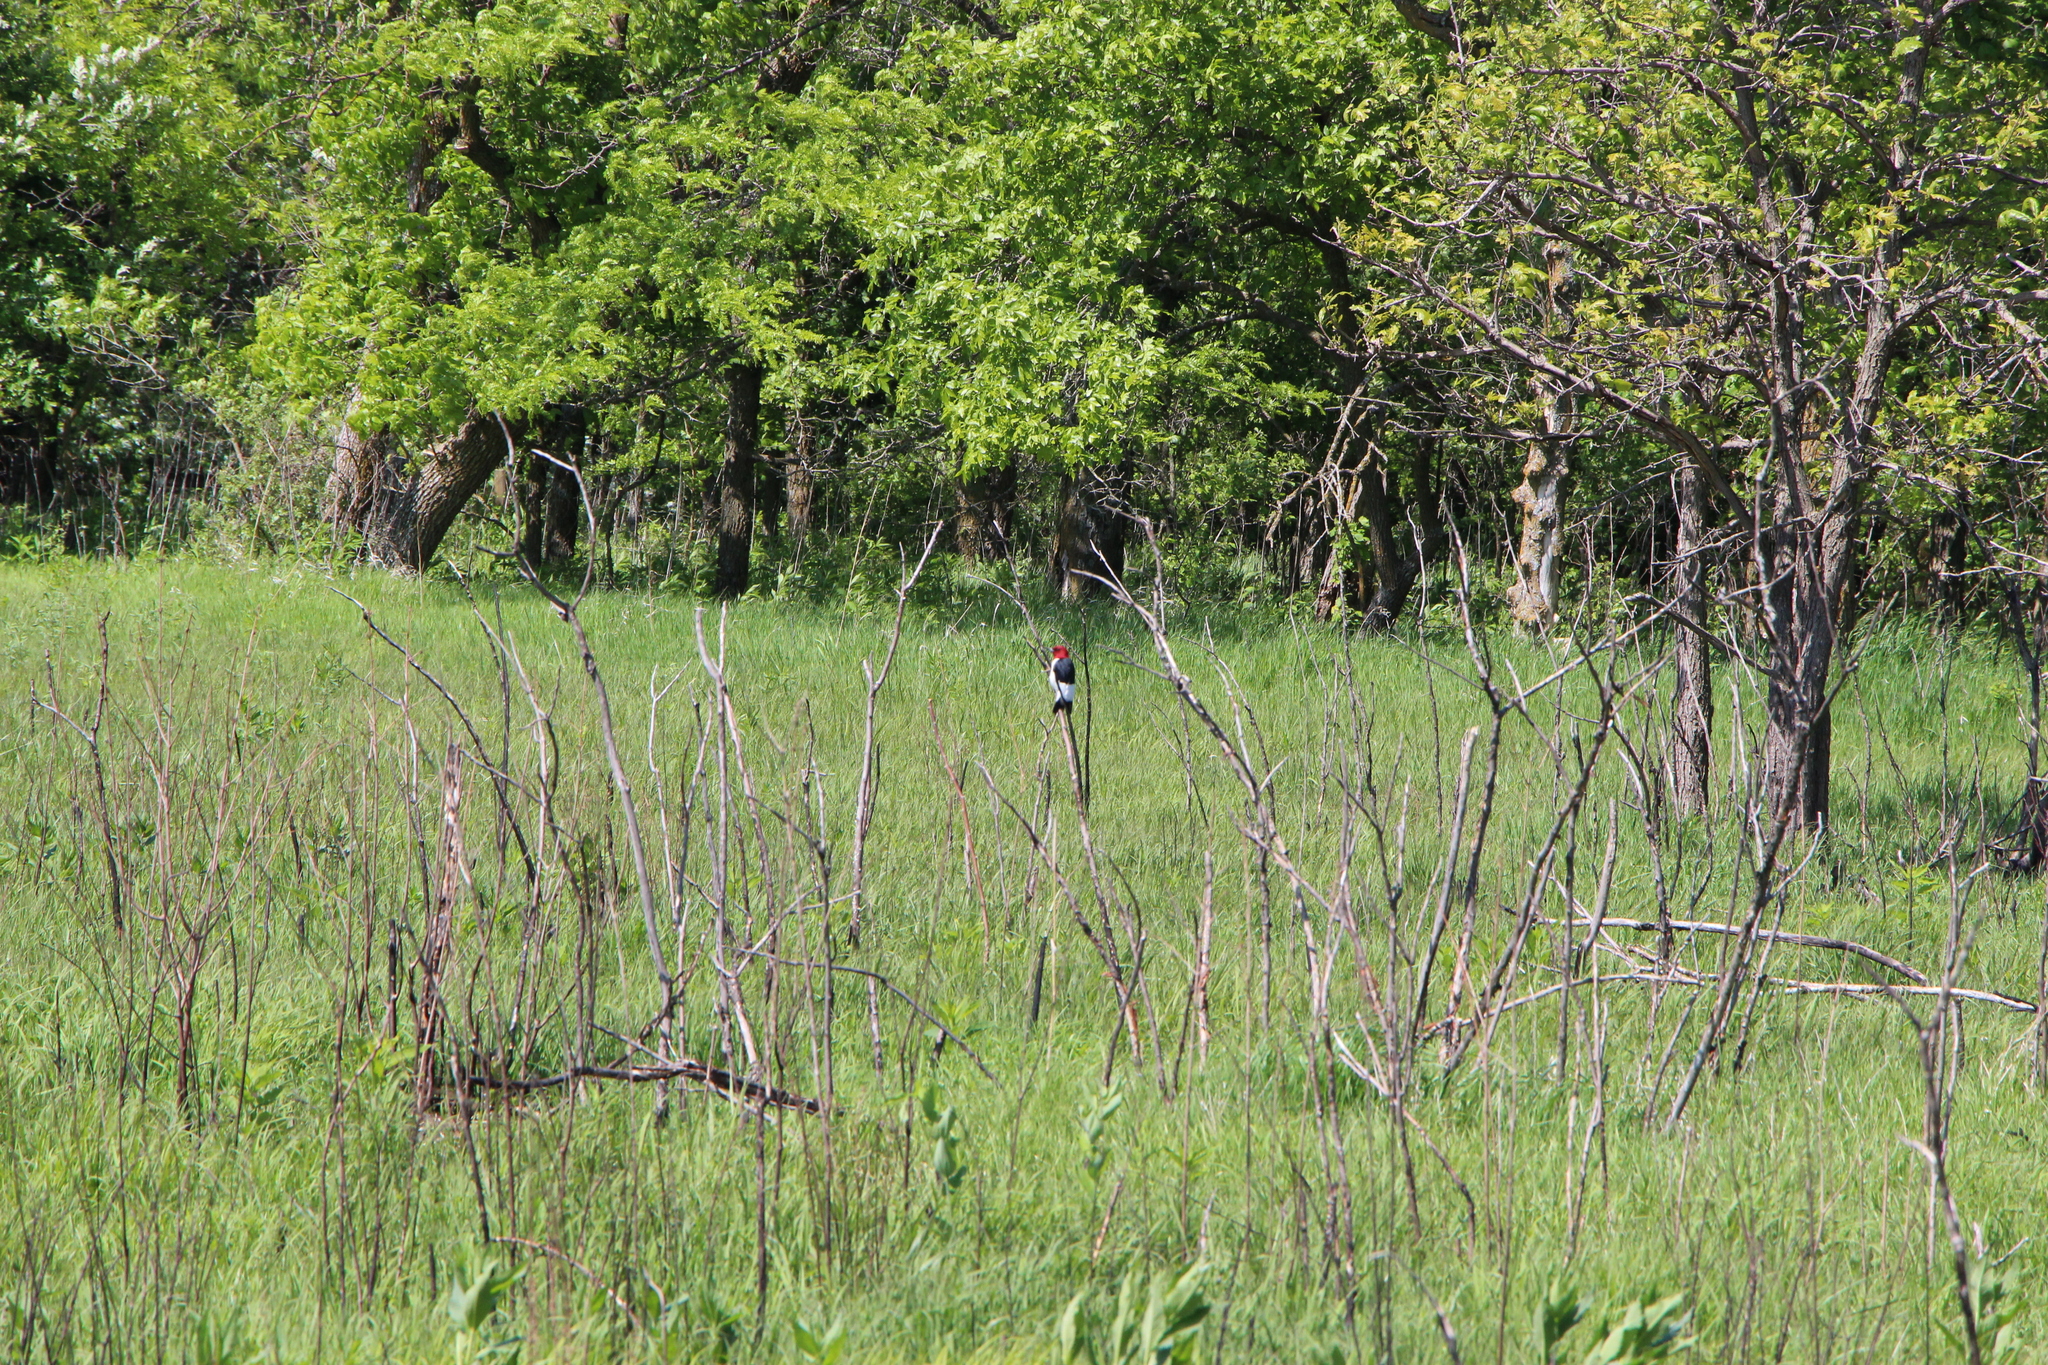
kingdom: Animalia
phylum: Chordata
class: Aves
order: Piciformes
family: Picidae
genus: Melanerpes
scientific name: Melanerpes erythrocephalus
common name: Red-headed woodpecker
